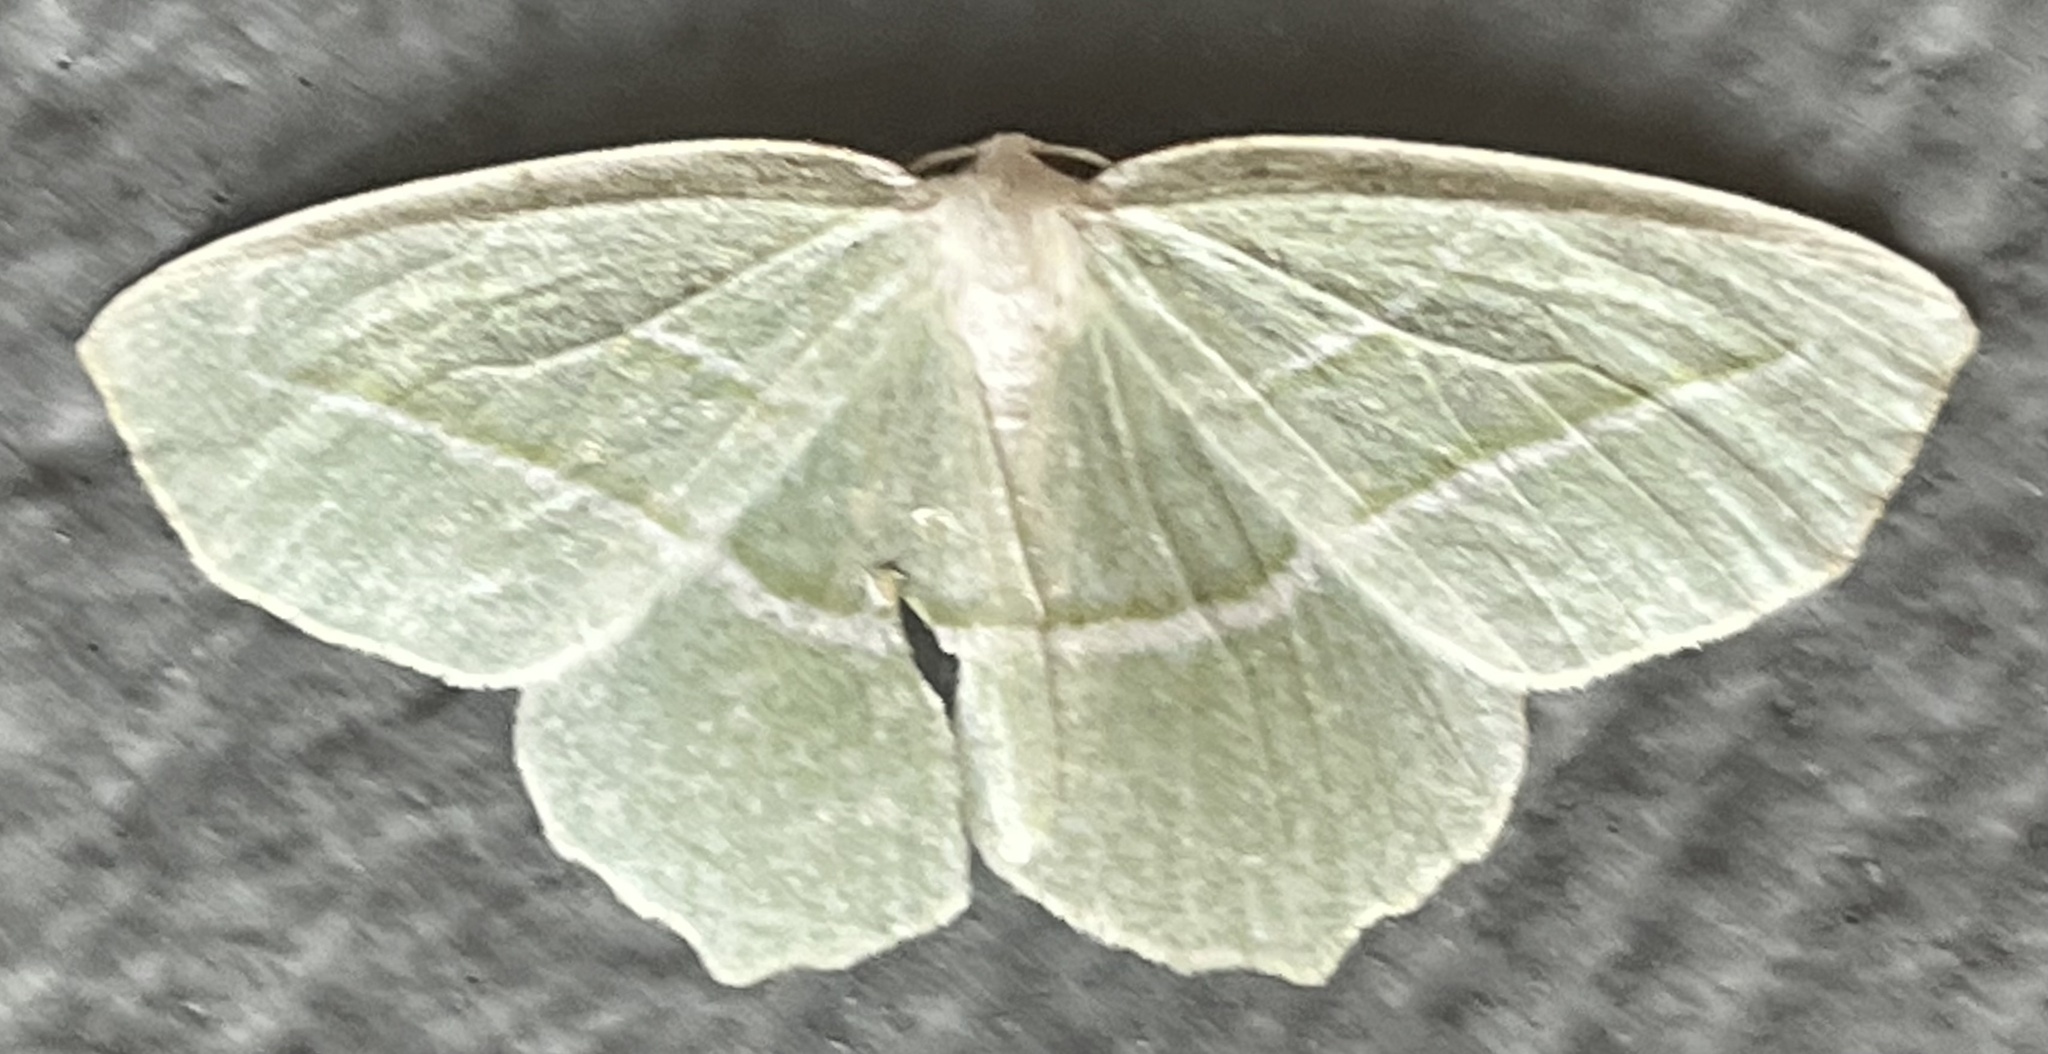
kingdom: Animalia
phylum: Arthropoda
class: Insecta
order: Lepidoptera
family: Geometridae
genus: Campaea
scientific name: Campaea perlata
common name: Fringed looper
